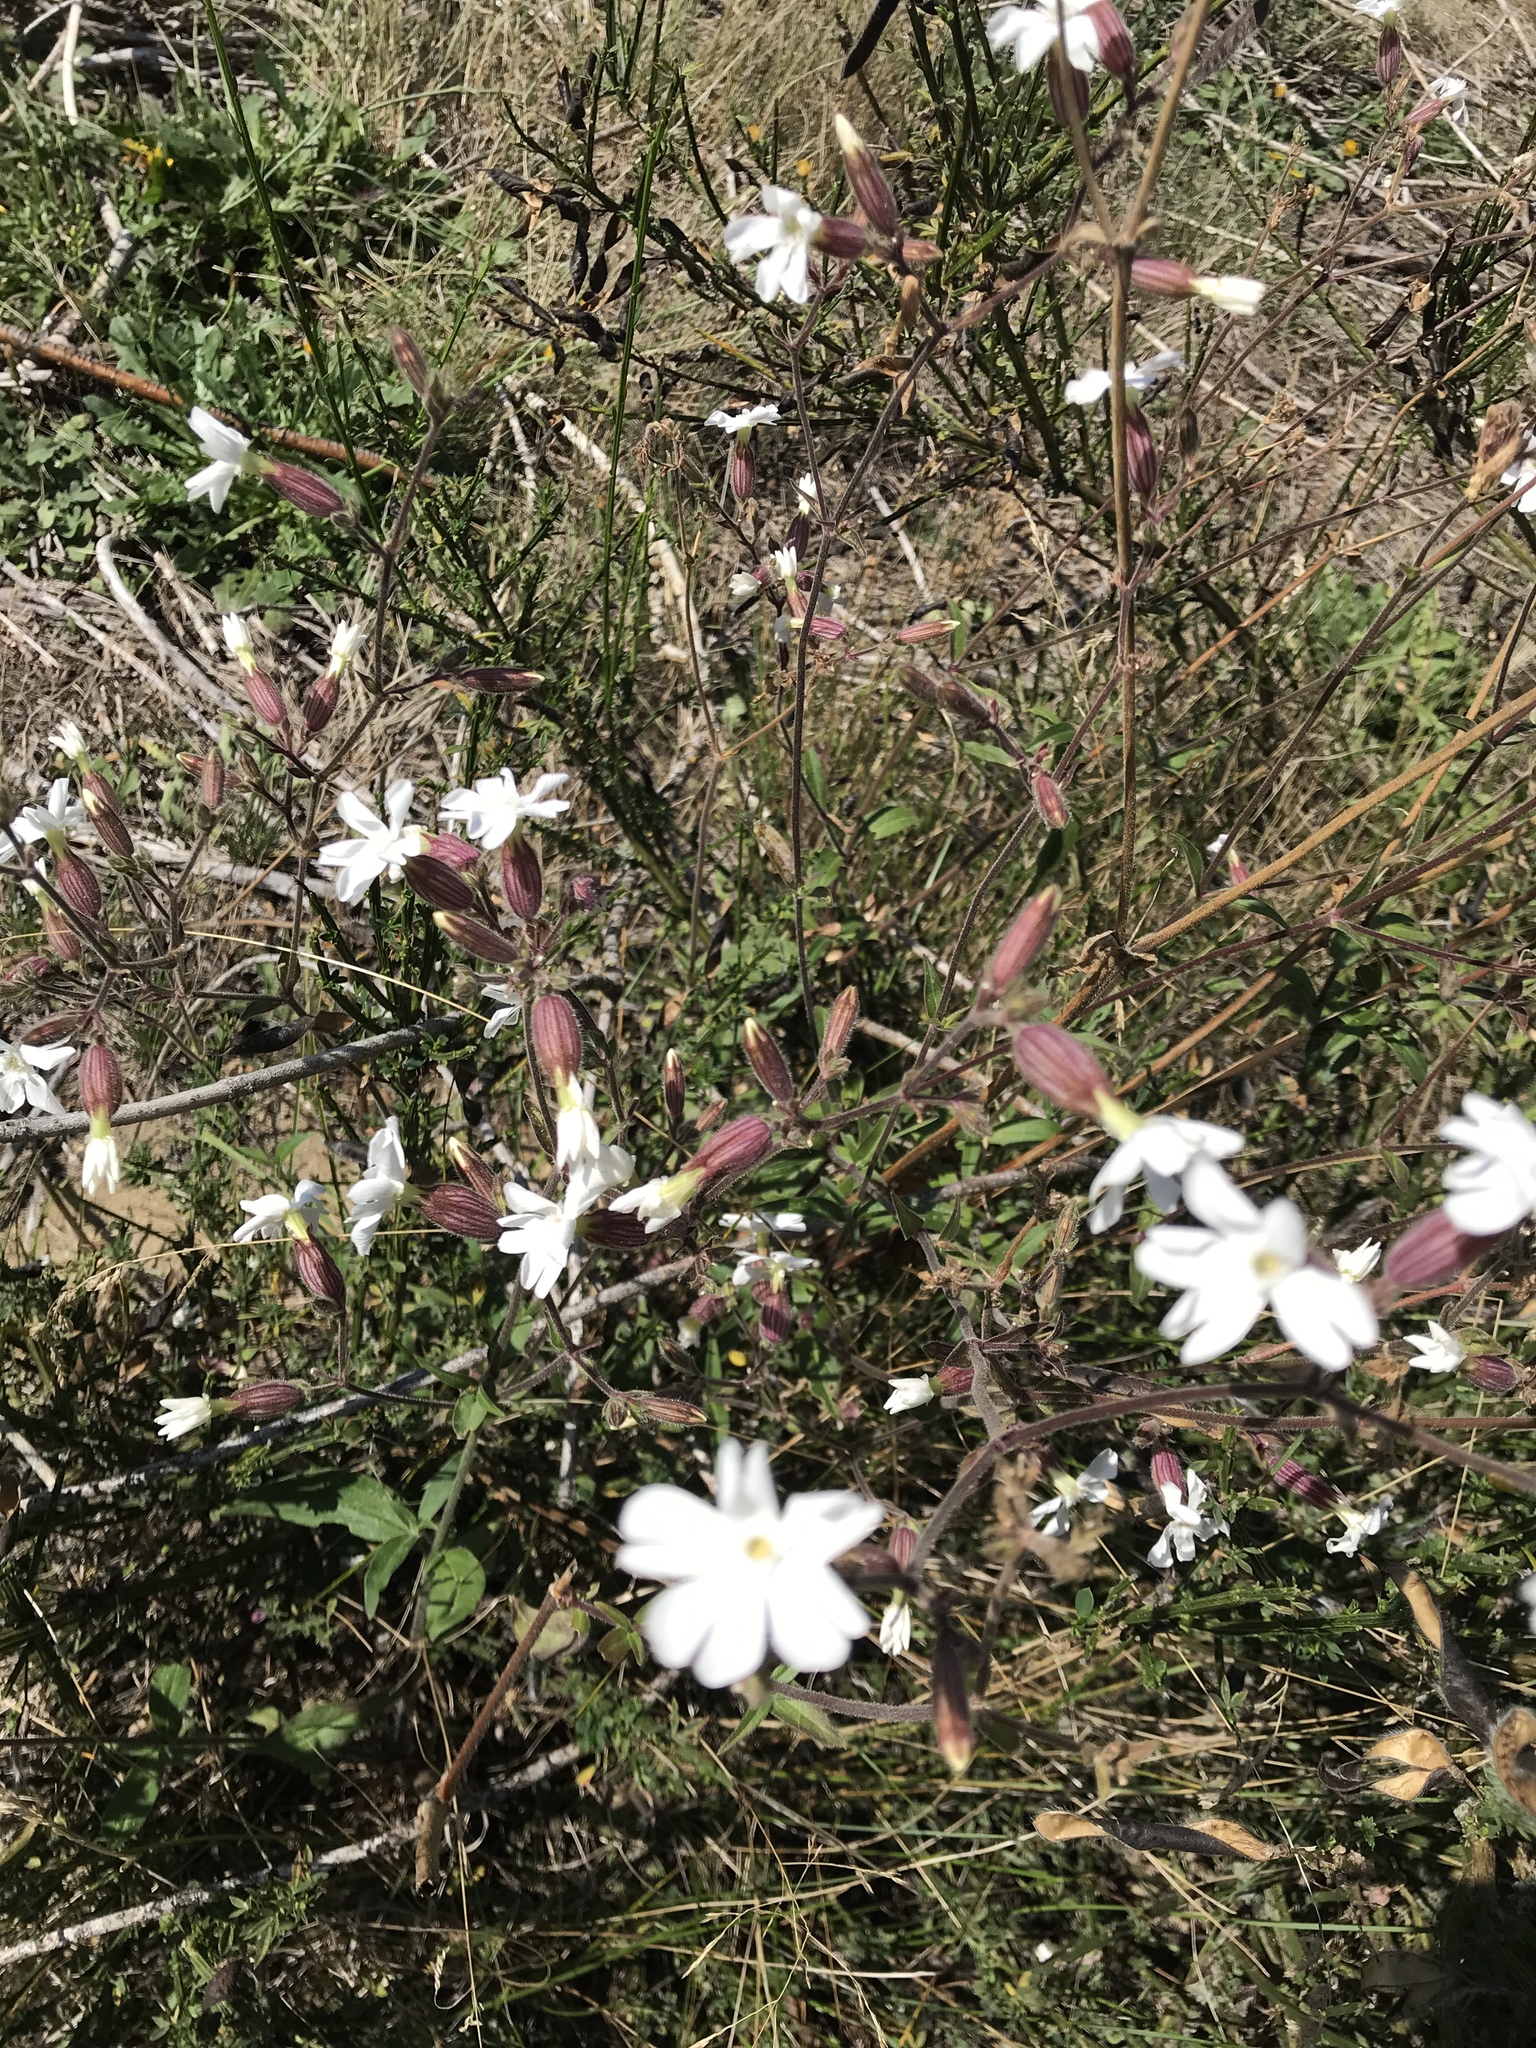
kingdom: Plantae
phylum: Tracheophyta
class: Magnoliopsida
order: Caryophyllales
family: Caryophyllaceae
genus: Silene
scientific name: Silene latifolia
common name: White campion
